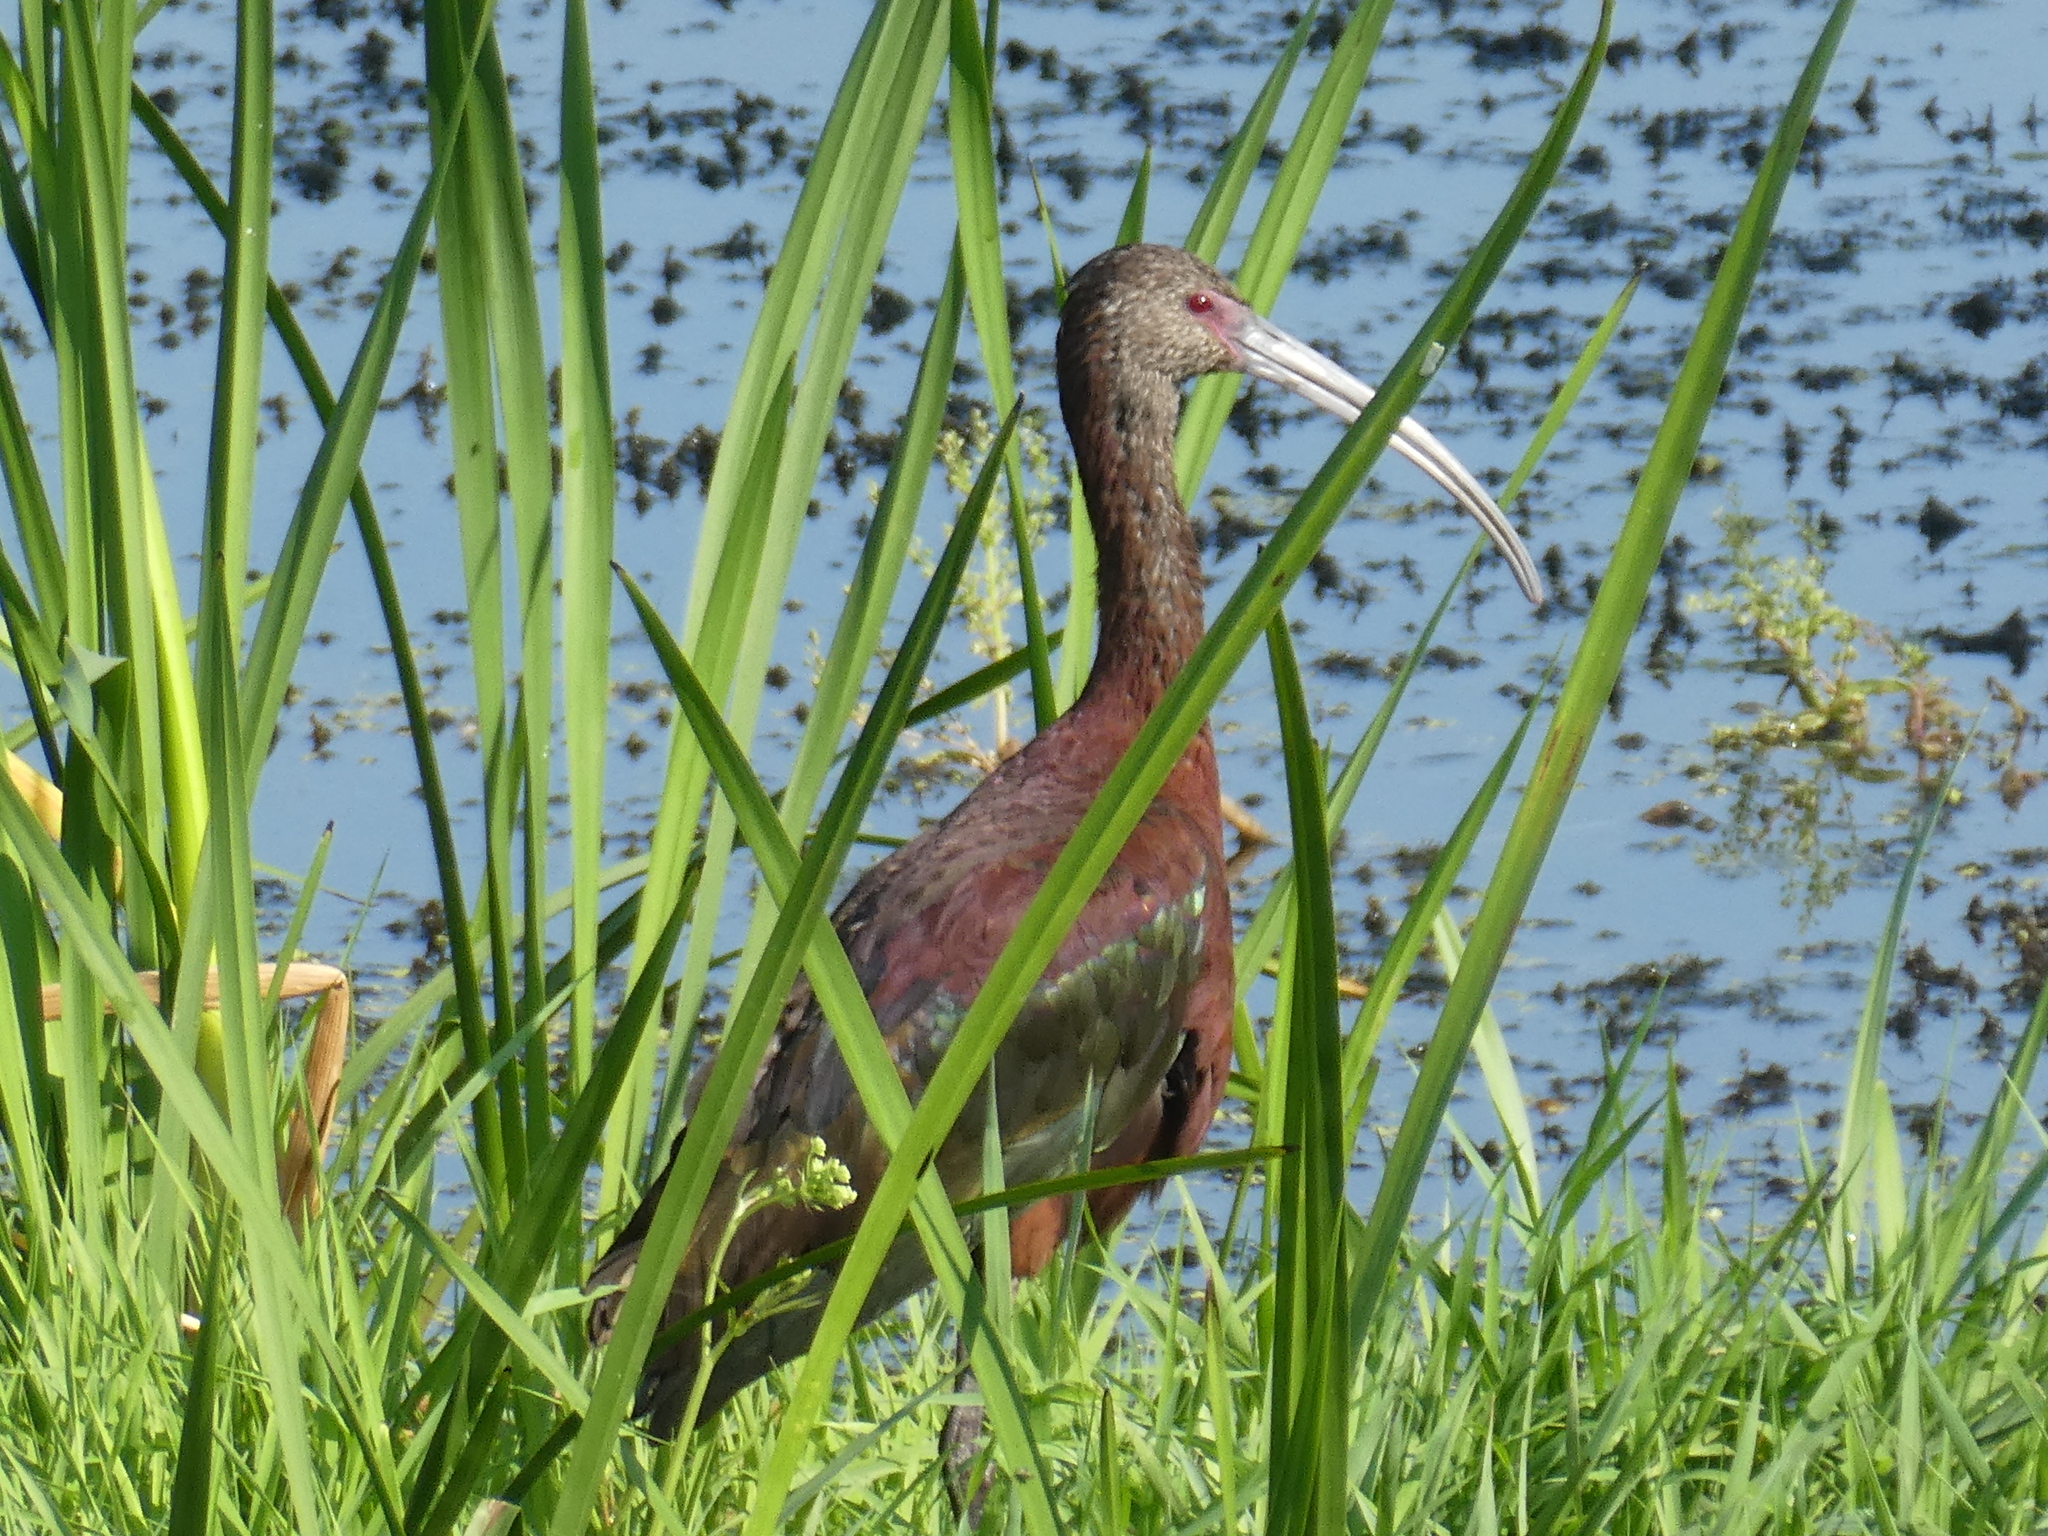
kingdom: Animalia
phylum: Chordata
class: Aves
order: Pelecaniformes
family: Threskiornithidae
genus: Plegadis
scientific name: Plegadis chihi
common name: White-faced ibis
